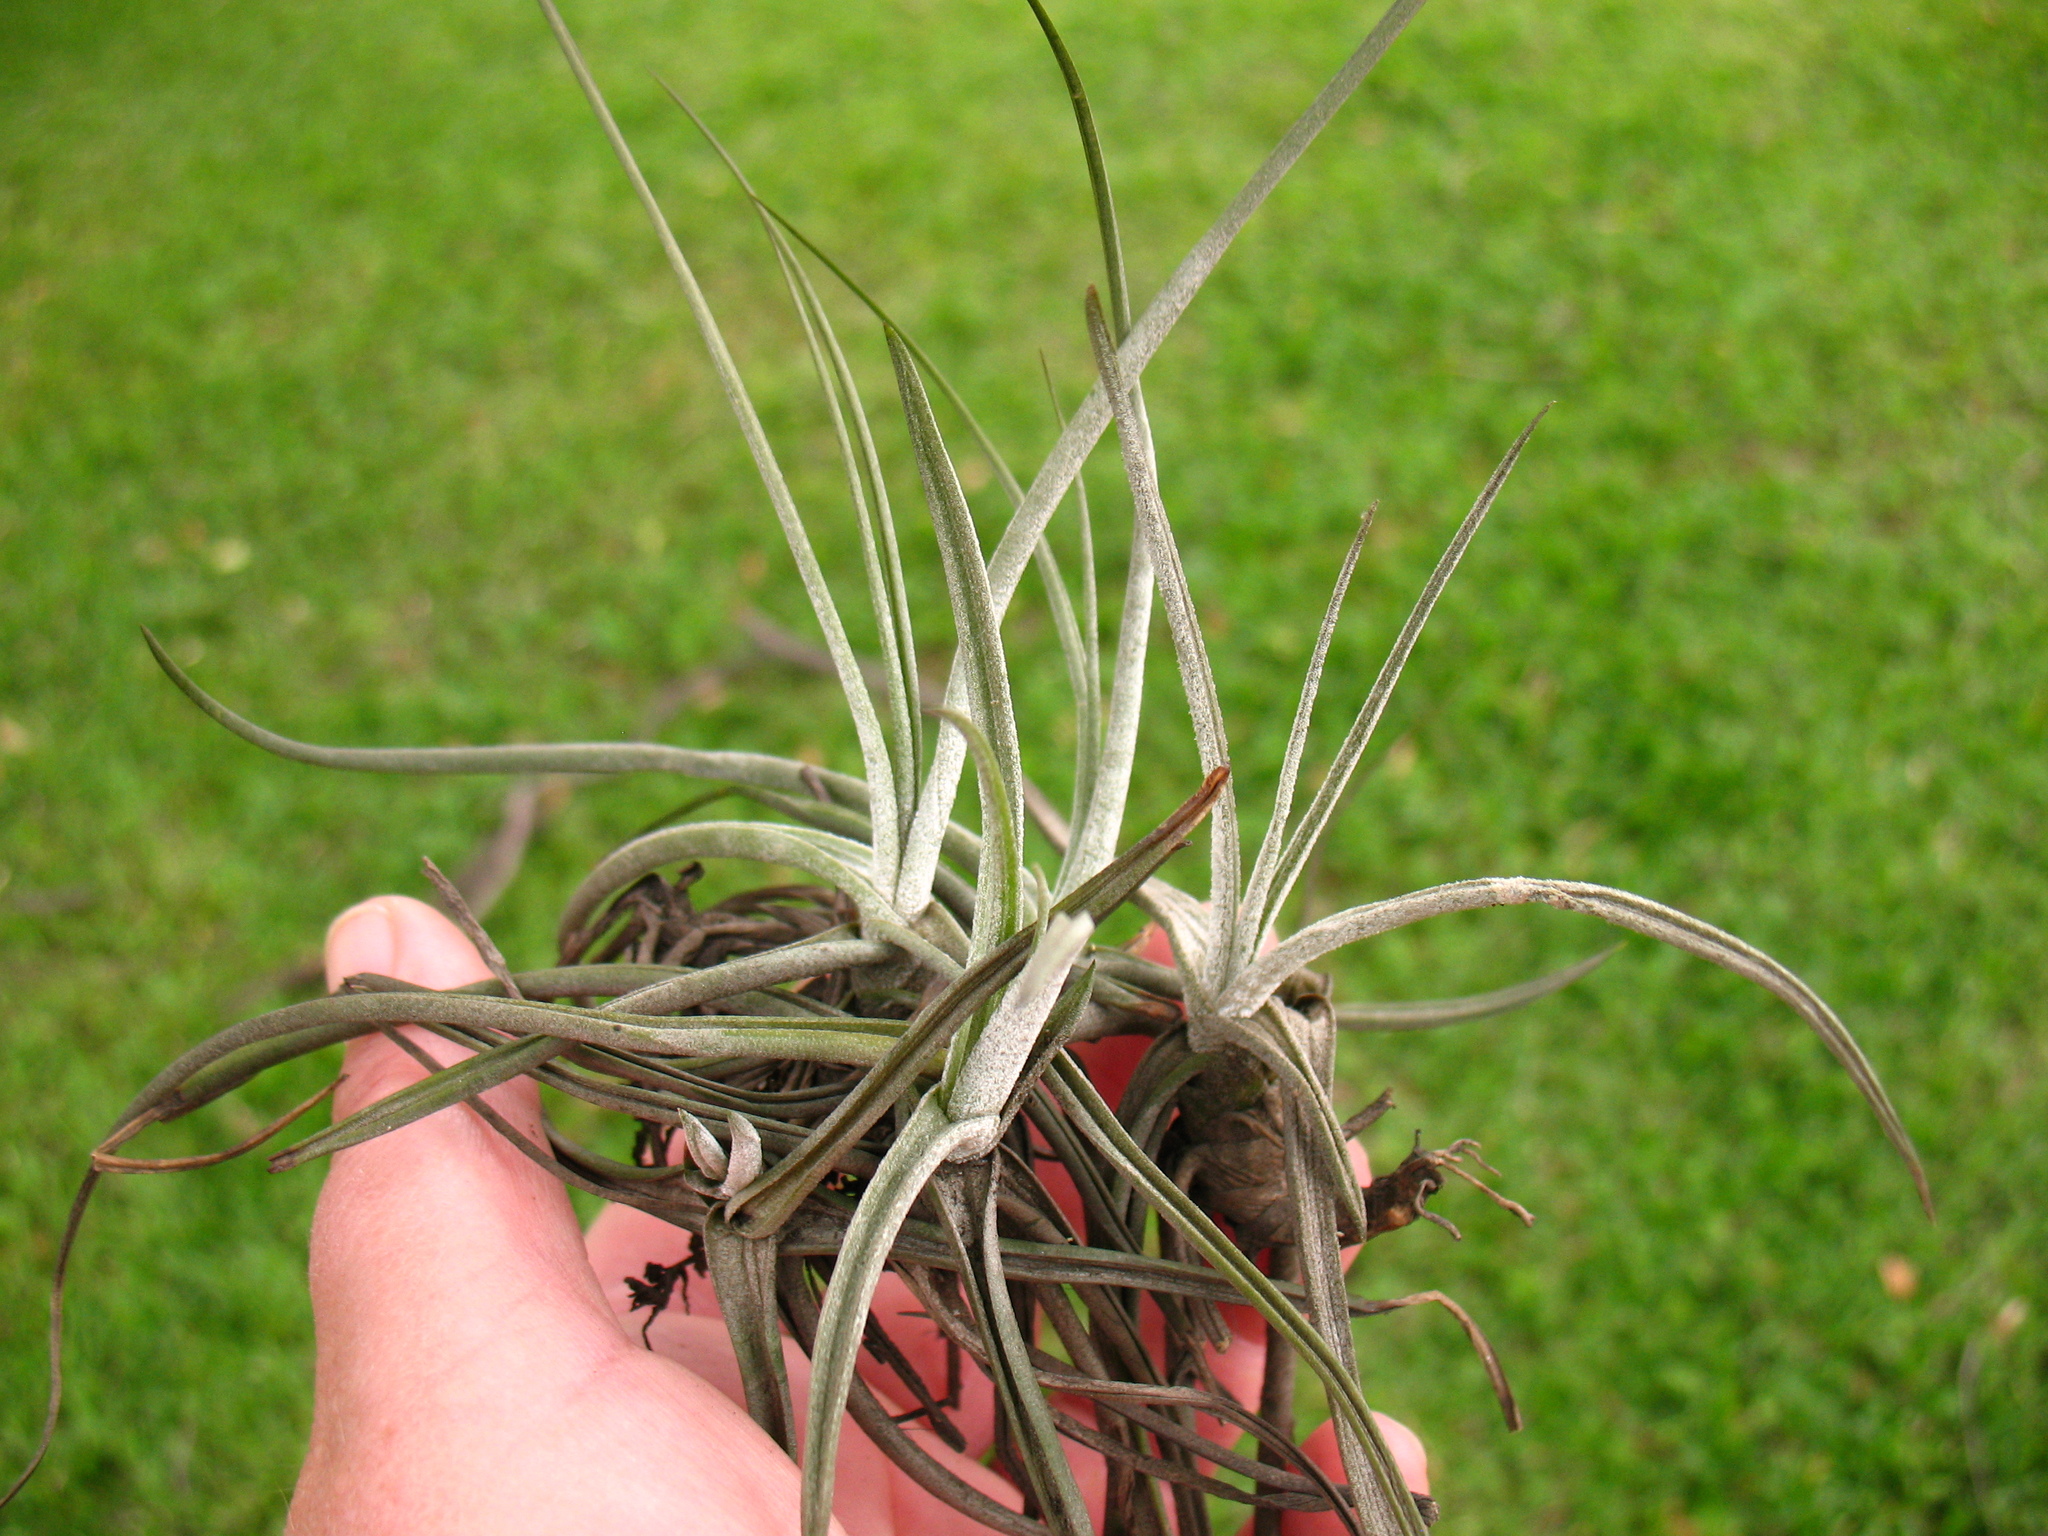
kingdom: Plantae
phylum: Tracheophyta
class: Liliopsida
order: Poales
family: Bromeliaceae
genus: Tillandsia
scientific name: Tillandsia schiedeana
